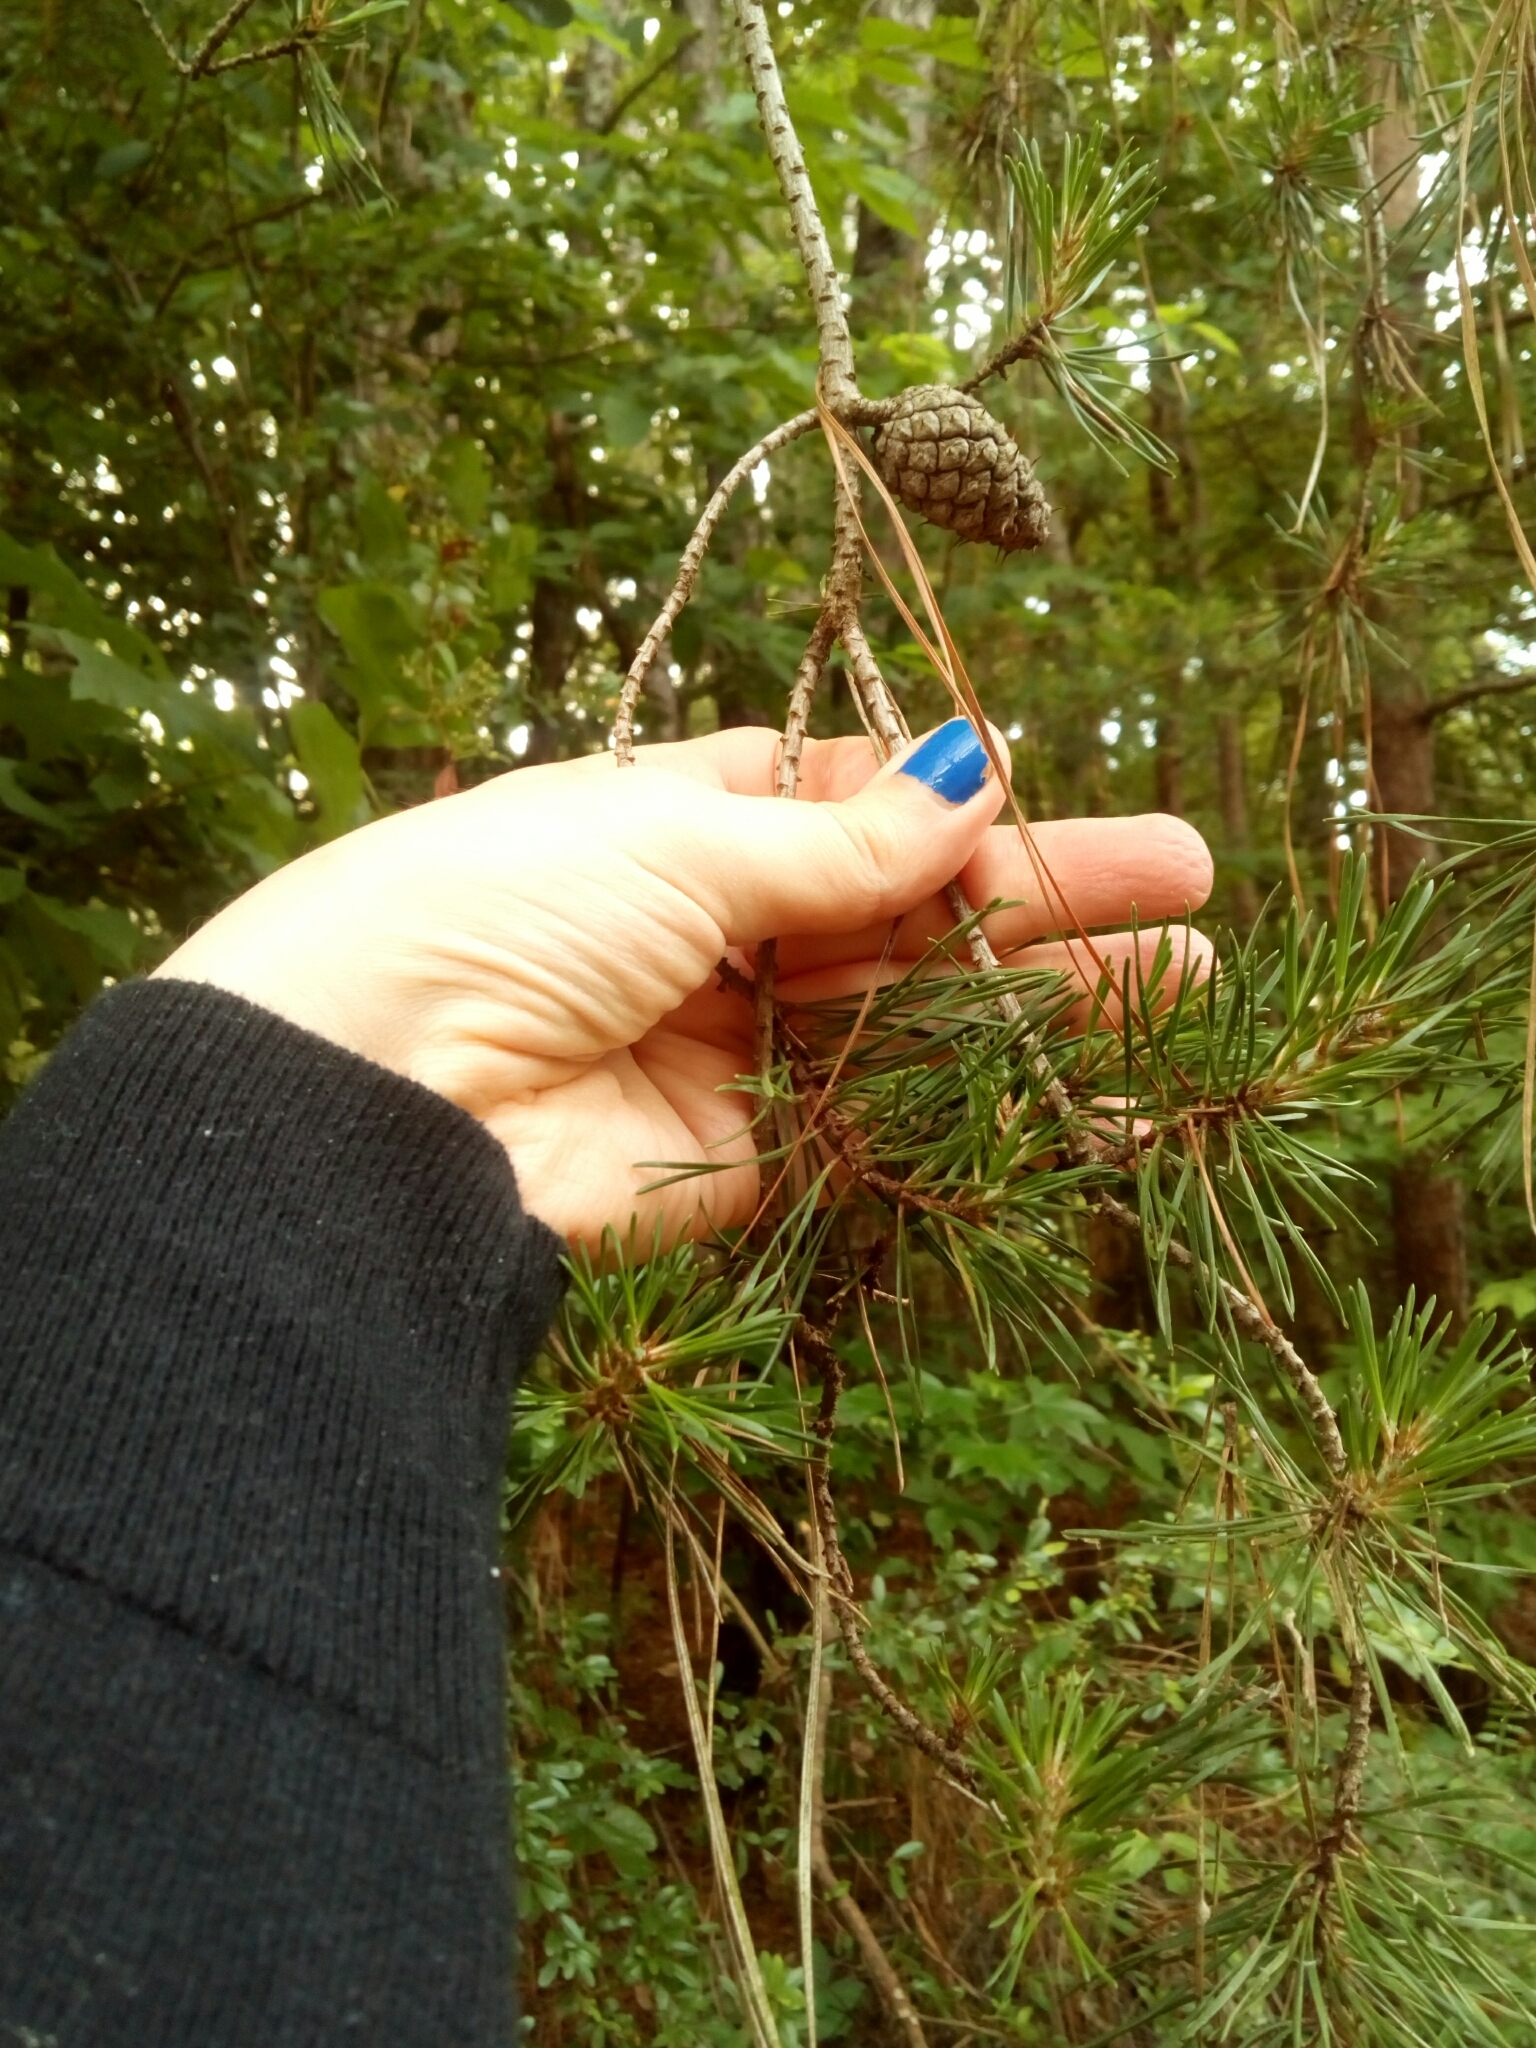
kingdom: Plantae
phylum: Tracheophyta
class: Pinopsida
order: Pinales
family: Pinaceae
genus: Pinus
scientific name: Pinus virginiana
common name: Scrub pine
